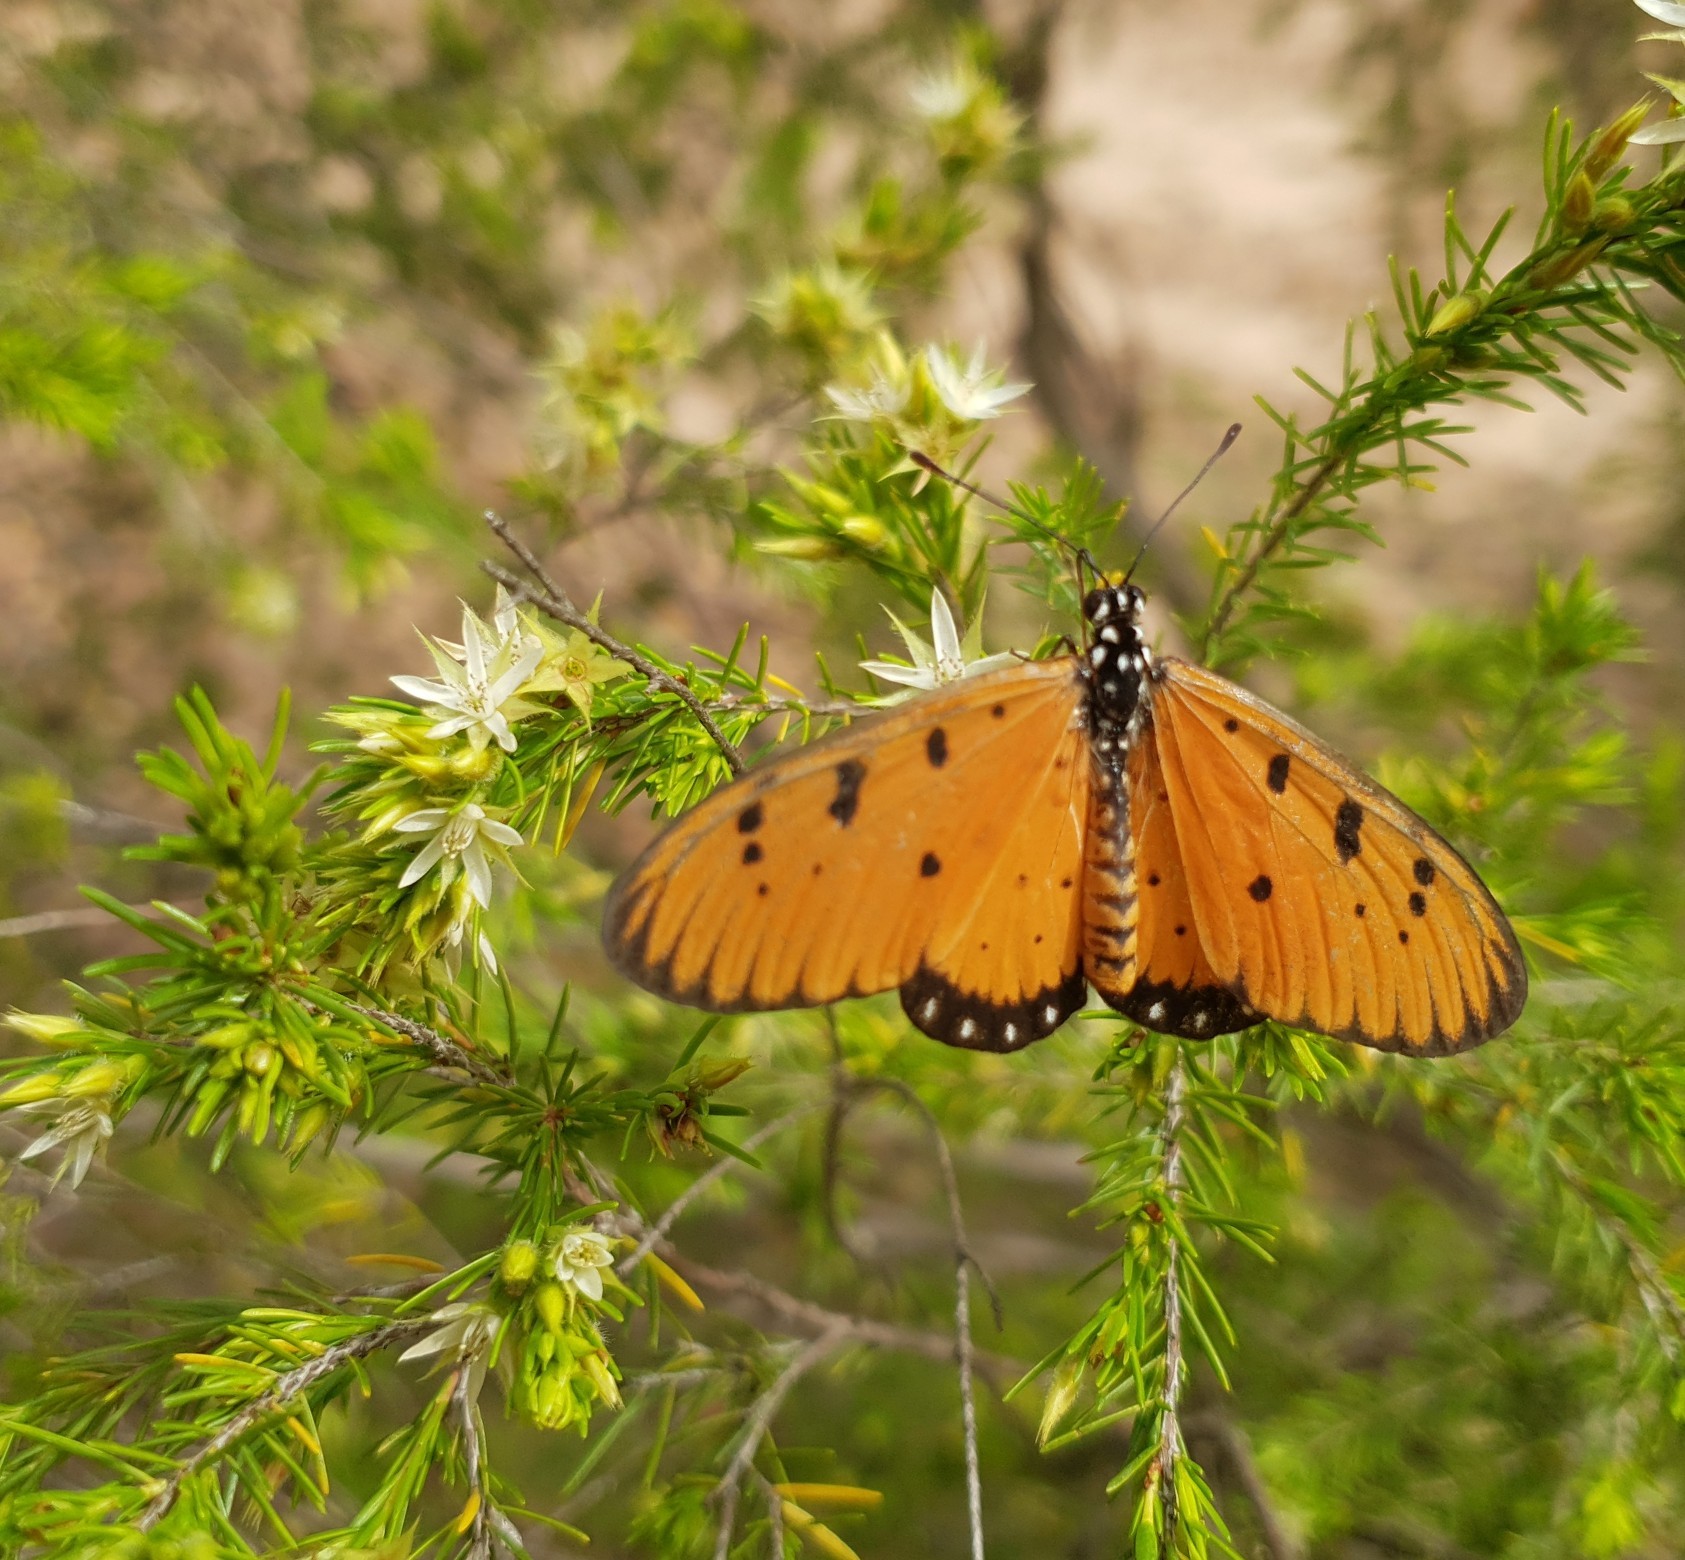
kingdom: Animalia
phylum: Arthropoda
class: Insecta
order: Lepidoptera
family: Nymphalidae
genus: Acraea
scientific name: Acraea terpsicore
